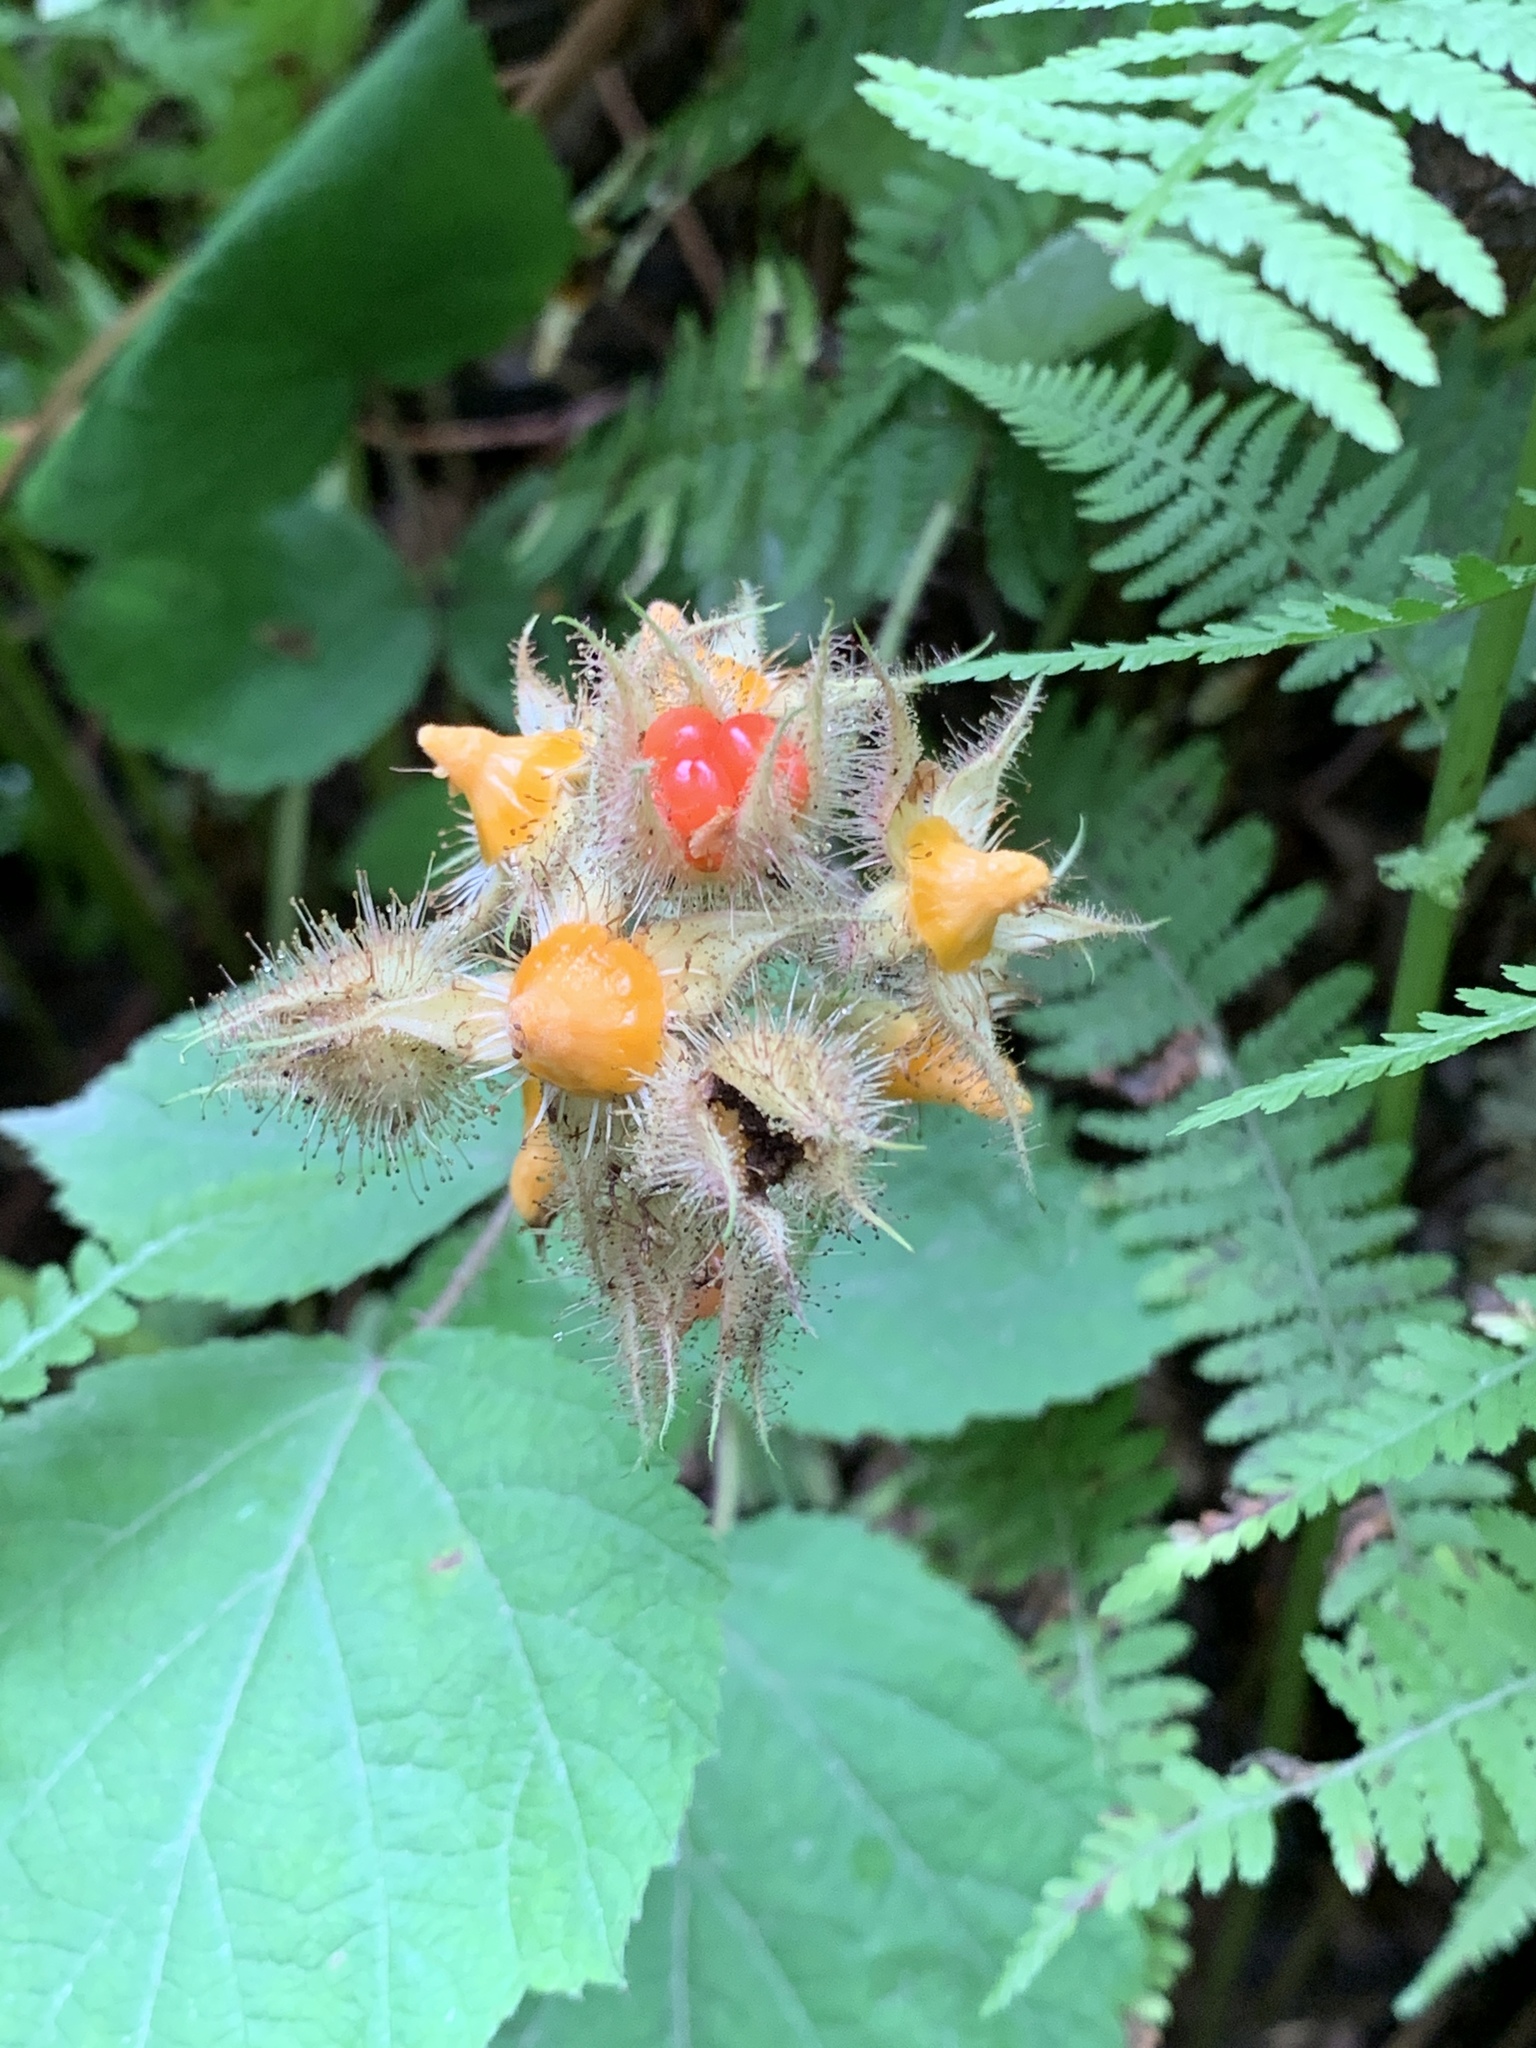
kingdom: Plantae
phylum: Tracheophyta
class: Magnoliopsida
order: Rosales
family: Rosaceae
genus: Rubus
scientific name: Rubus phoenicolasius
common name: Japanese wineberry
